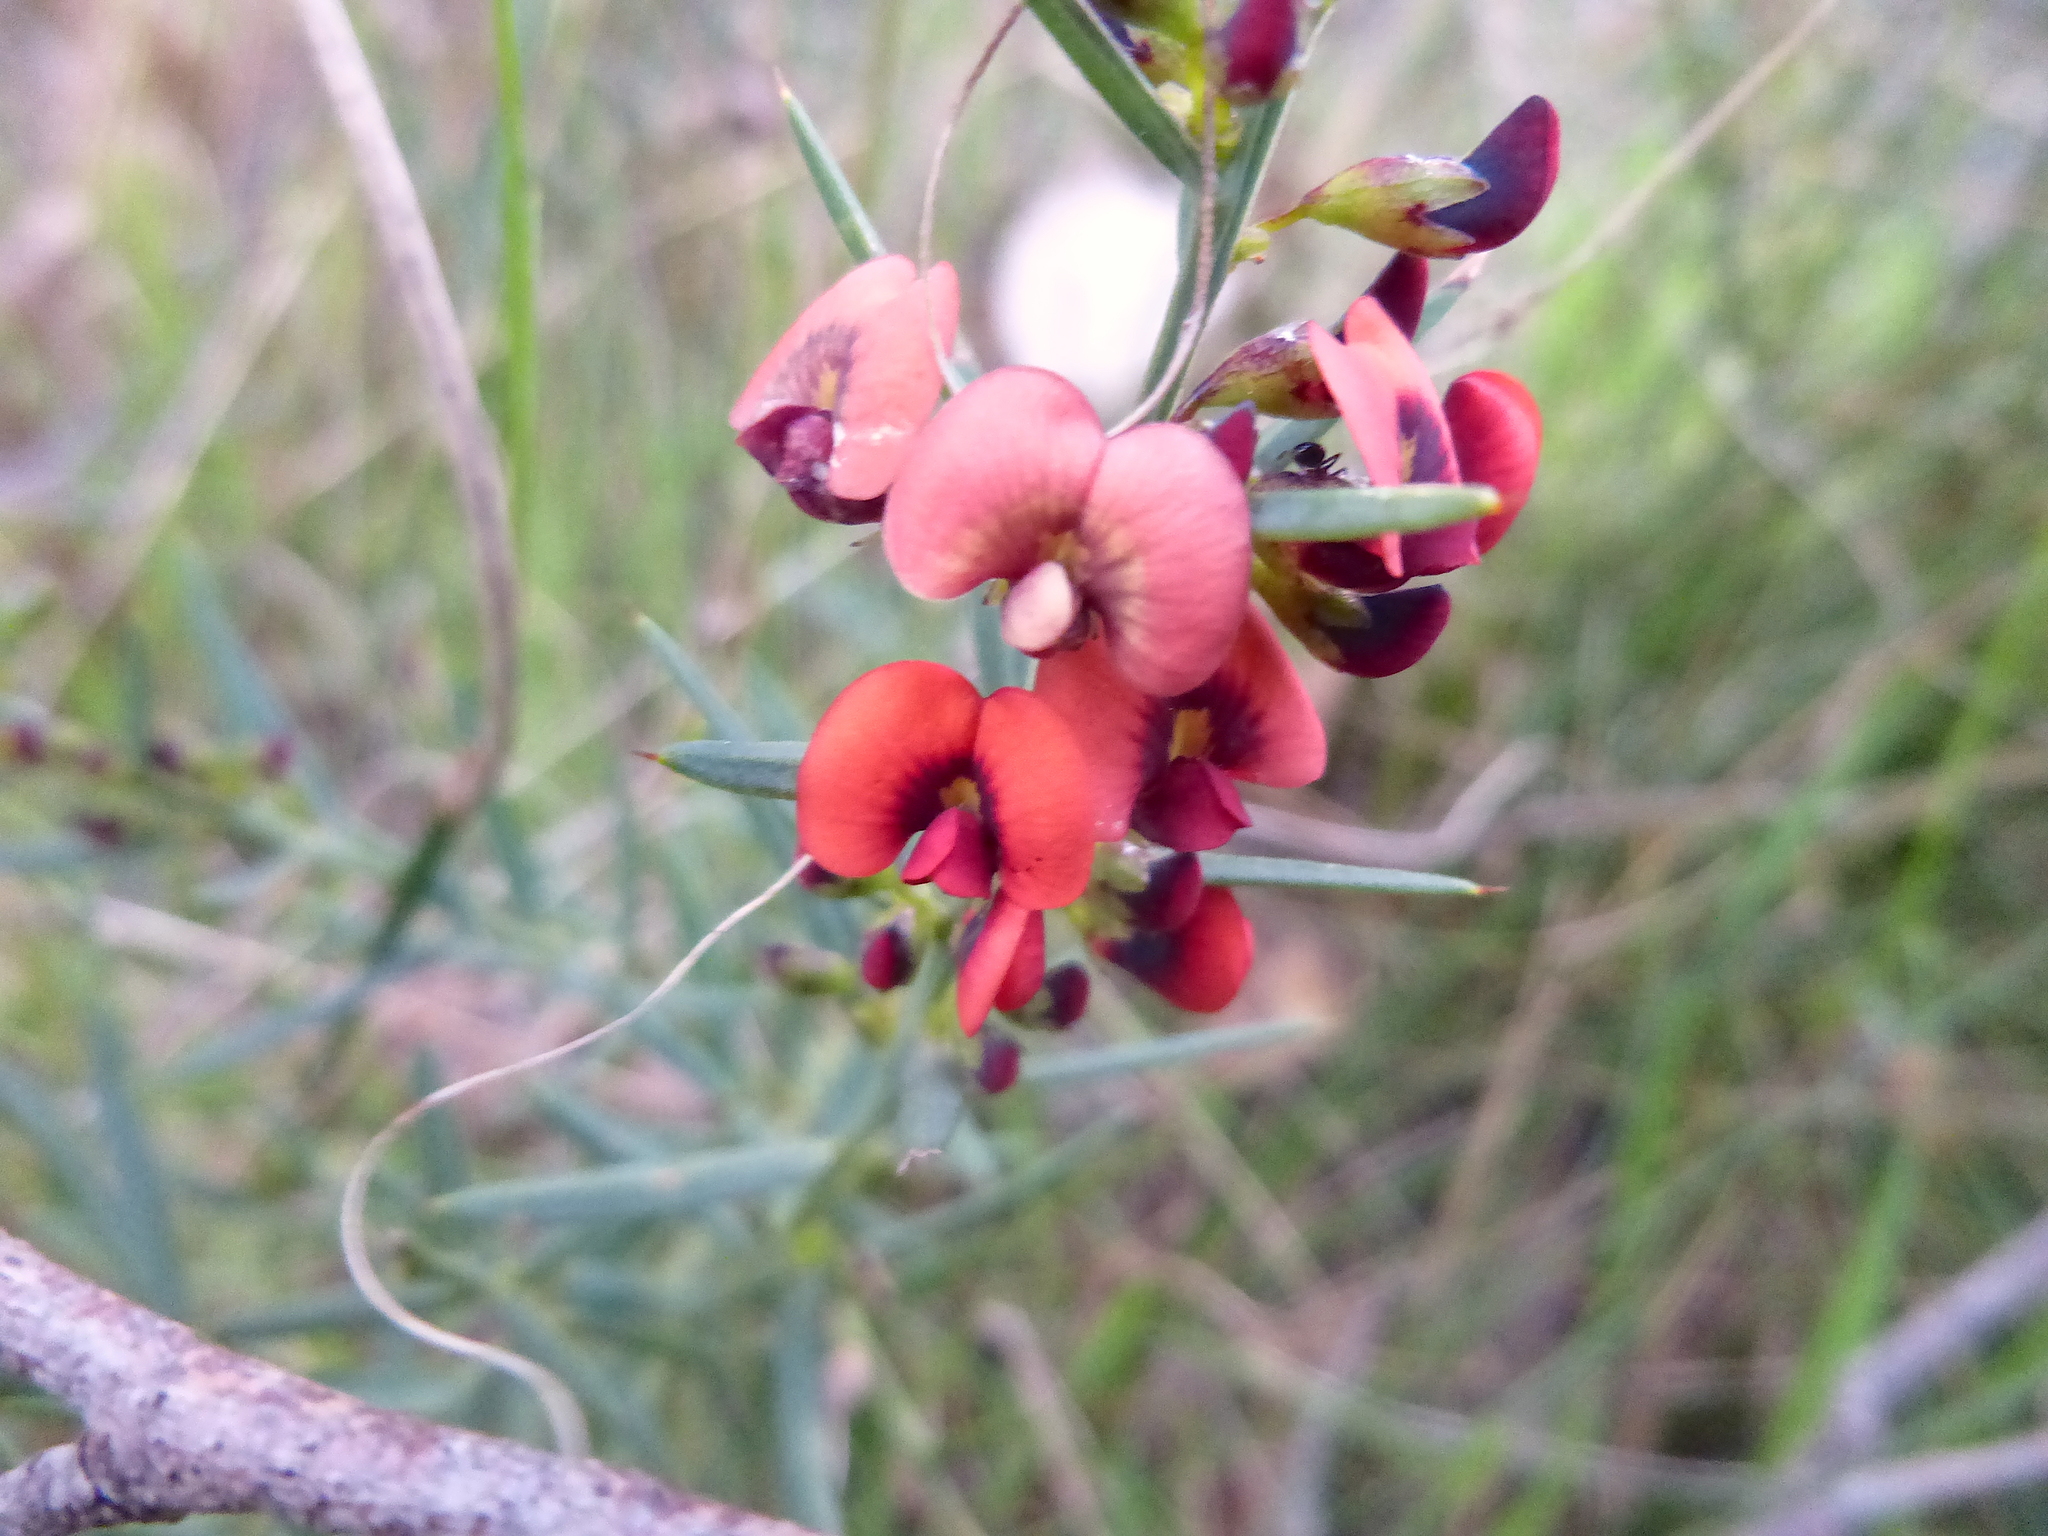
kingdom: Plantae
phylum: Tracheophyta
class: Magnoliopsida
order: Fabales
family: Fabaceae
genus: Daviesia
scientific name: Daviesia ulicifolia
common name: Gorse bitter-pea
